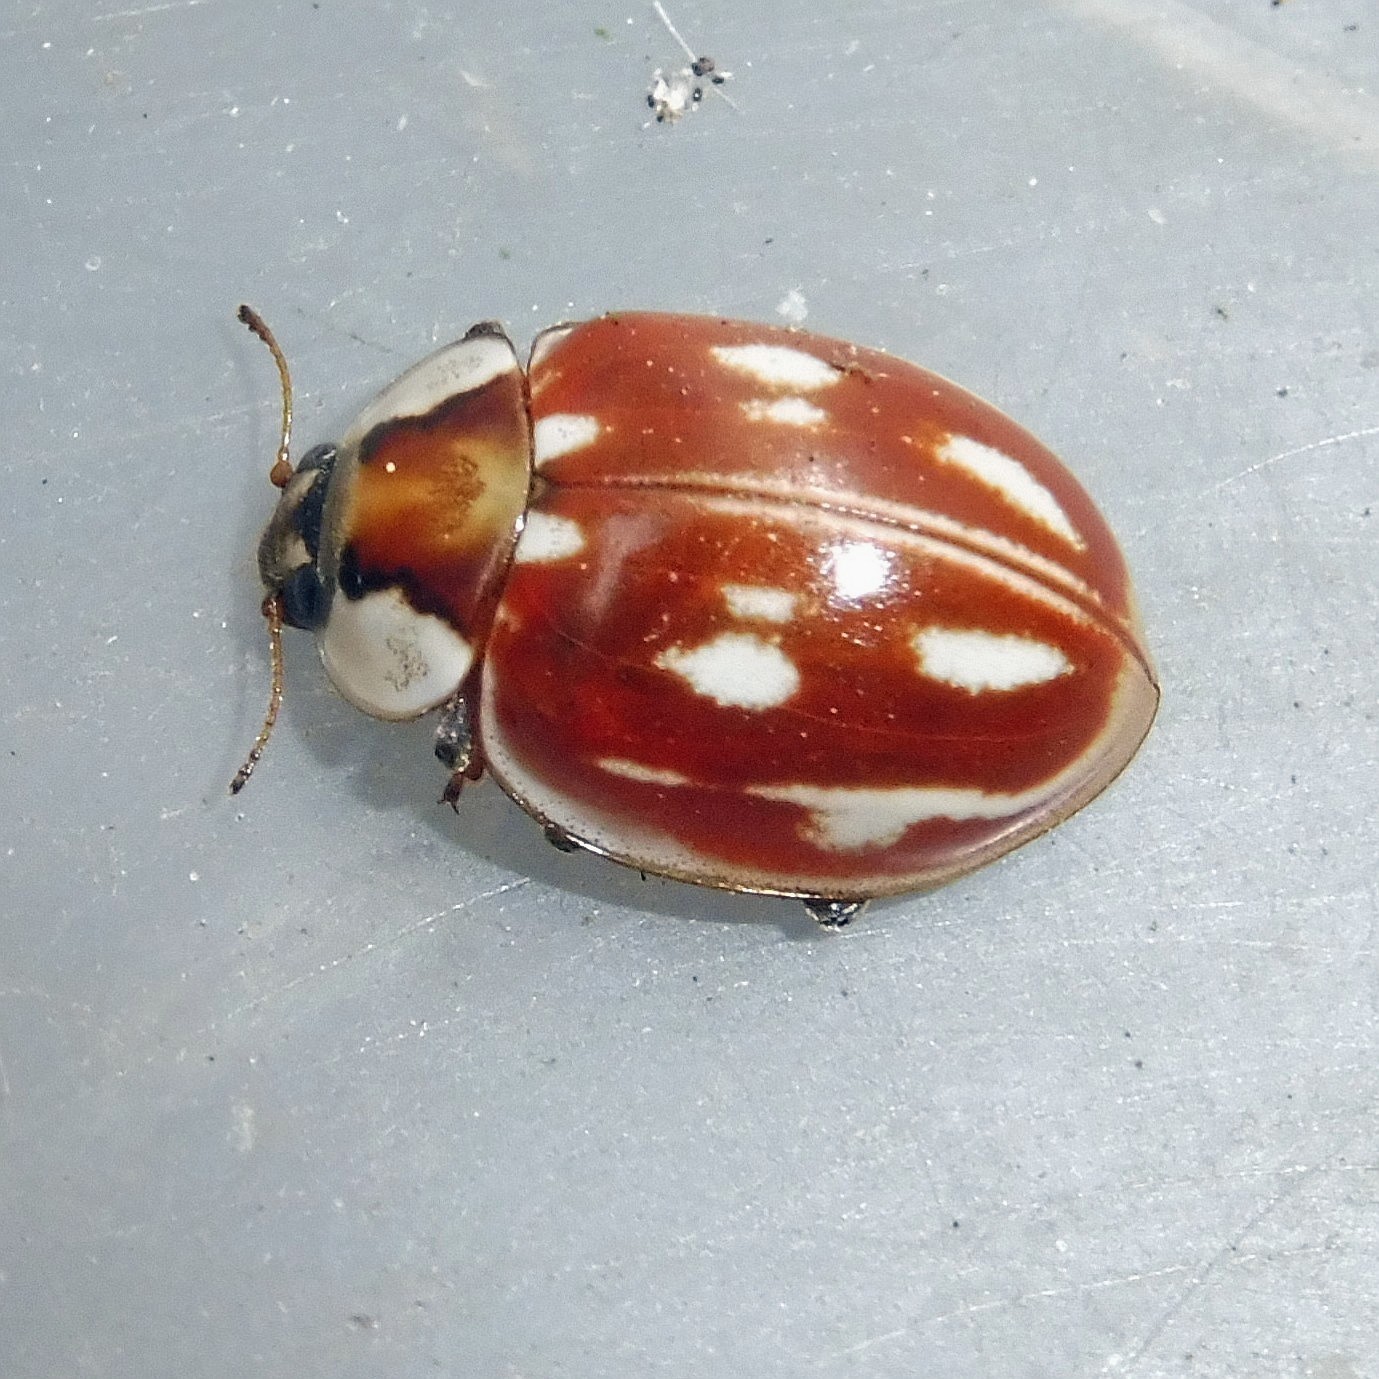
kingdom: Animalia
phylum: Arthropoda
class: Insecta
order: Coleoptera
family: Coccinellidae
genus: Myzia
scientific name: Myzia oblongoguttata
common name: Striped ladybird
